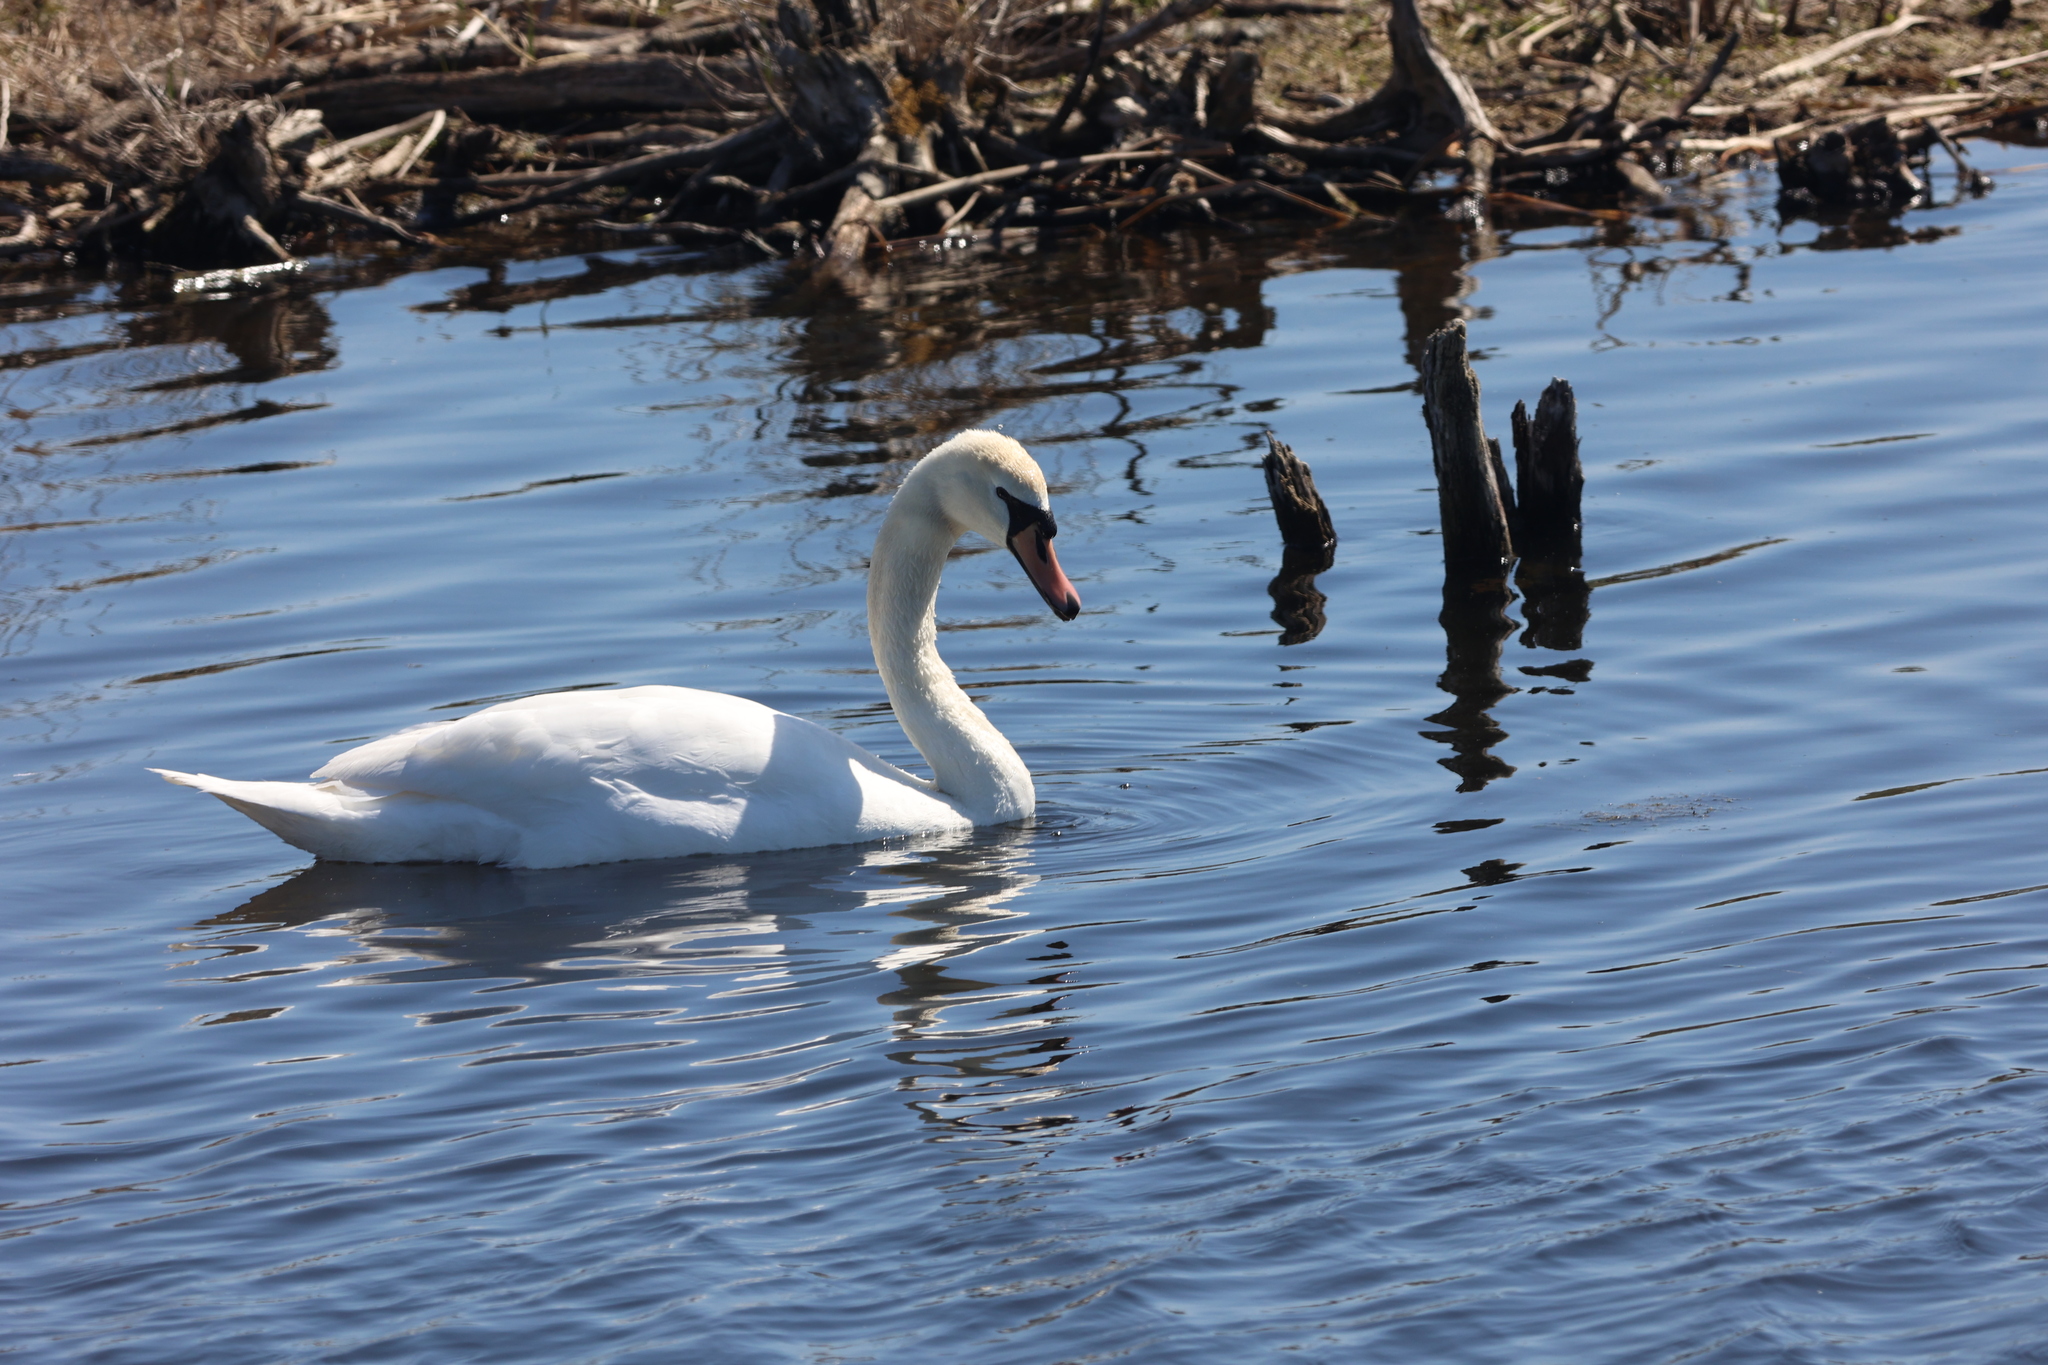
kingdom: Animalia
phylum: Chordata
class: Aves
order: Anseriformes
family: Anatidae
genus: Cygnus
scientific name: Cygnus olor
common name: Mute swan
